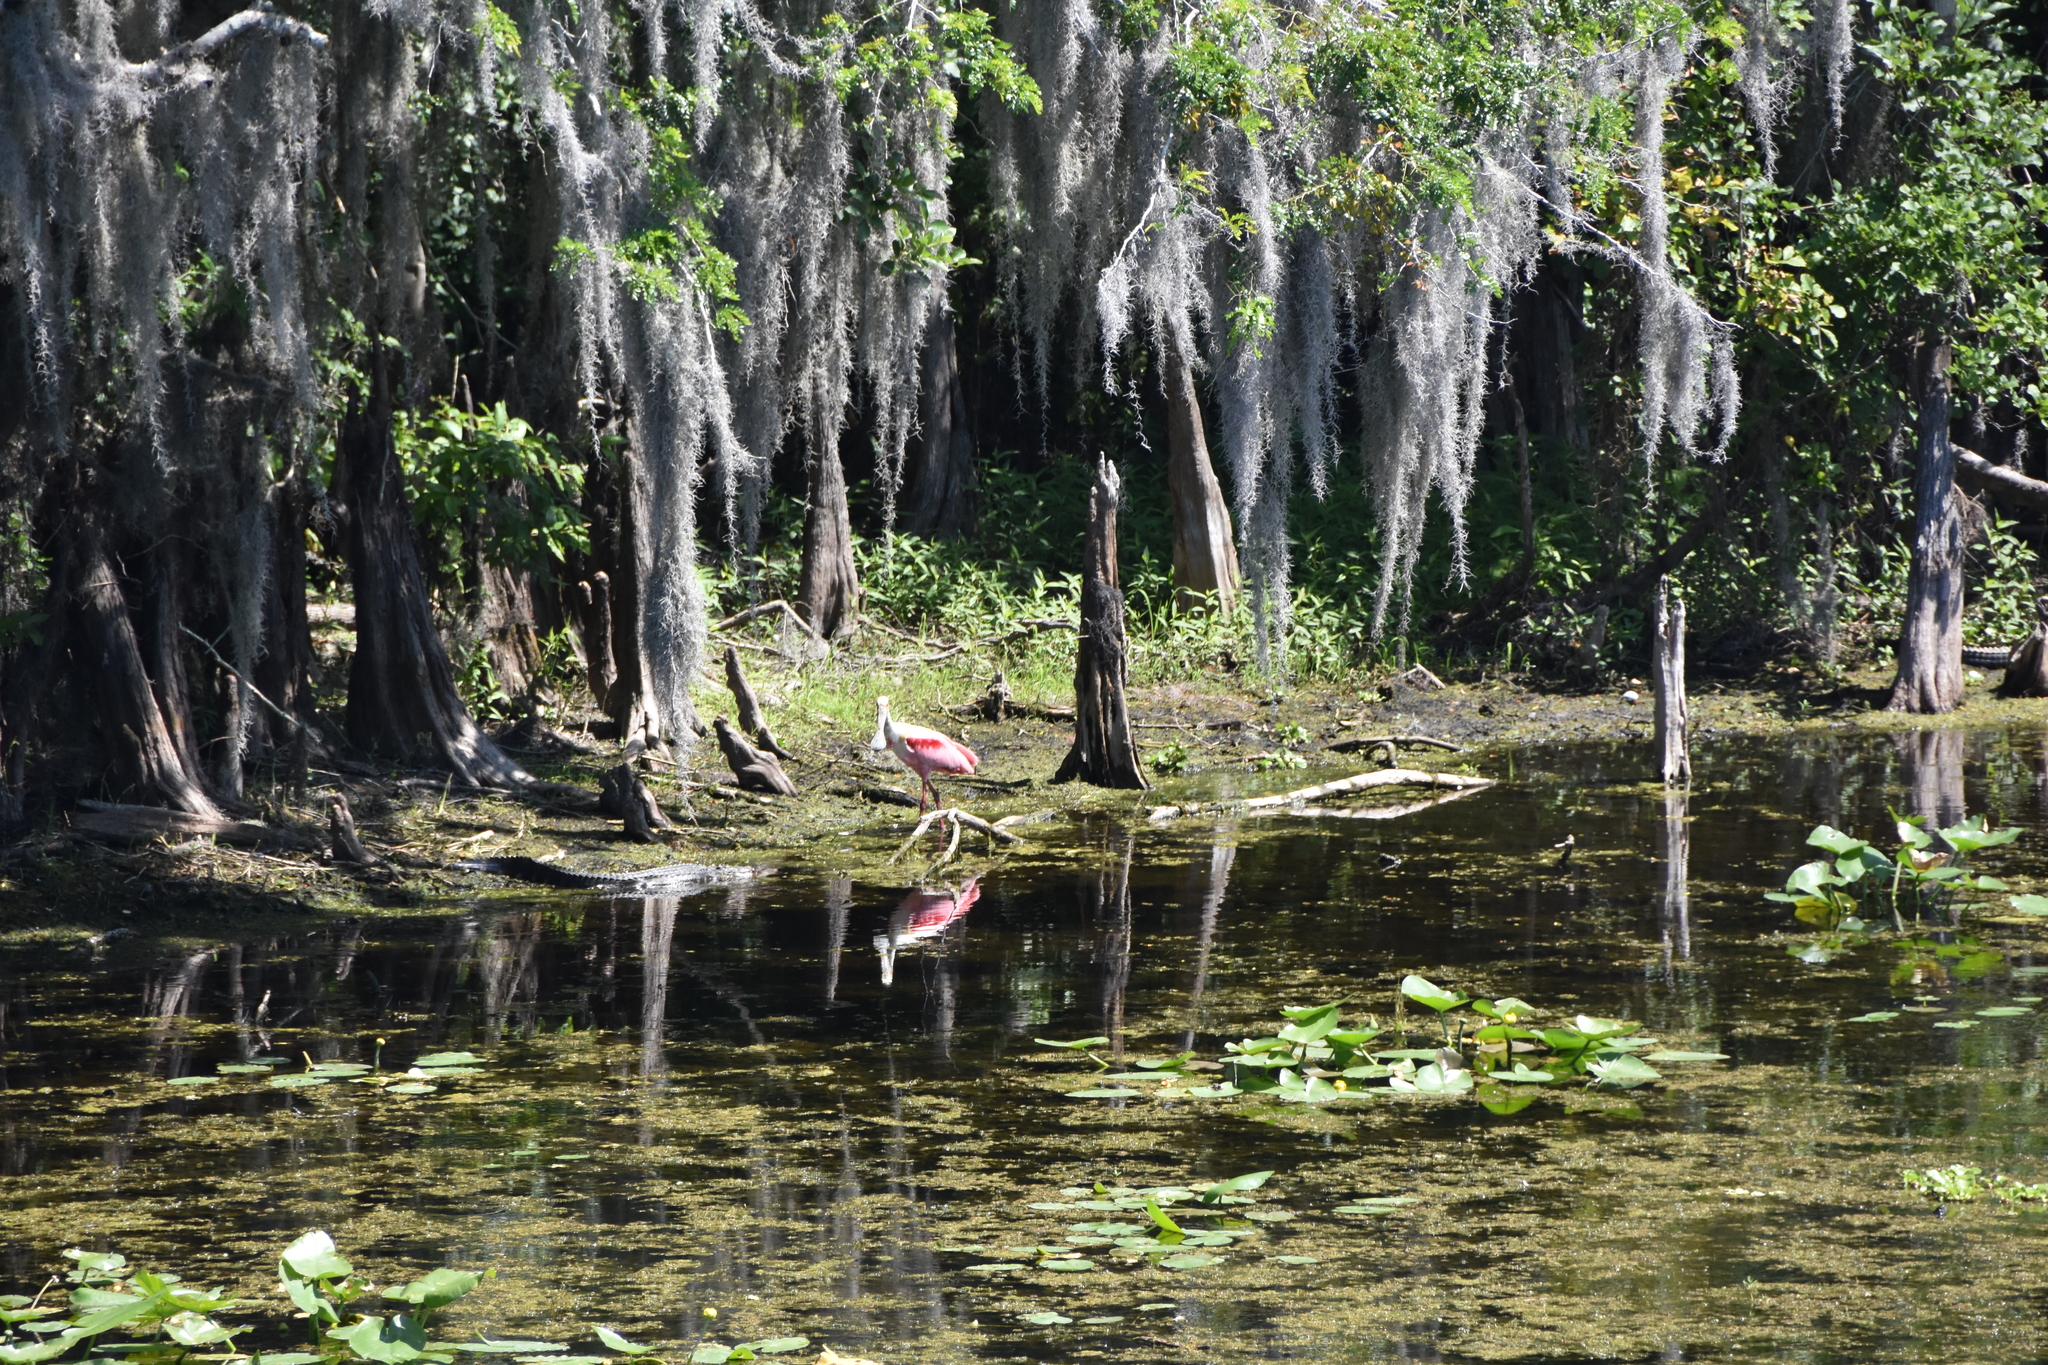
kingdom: Animalia
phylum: Chordata
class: Crocodylia
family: Alligatoridae
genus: Alligator
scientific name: Alligator mississippiensis
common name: American alligator
